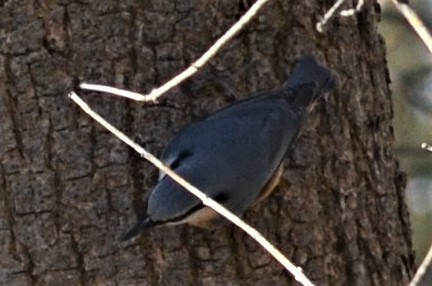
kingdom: Animalia
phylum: Chordata
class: Aves
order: Passeriformes
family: Sittidae
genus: Sitta
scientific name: Sitta europaea
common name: Eurasian nuthatch
